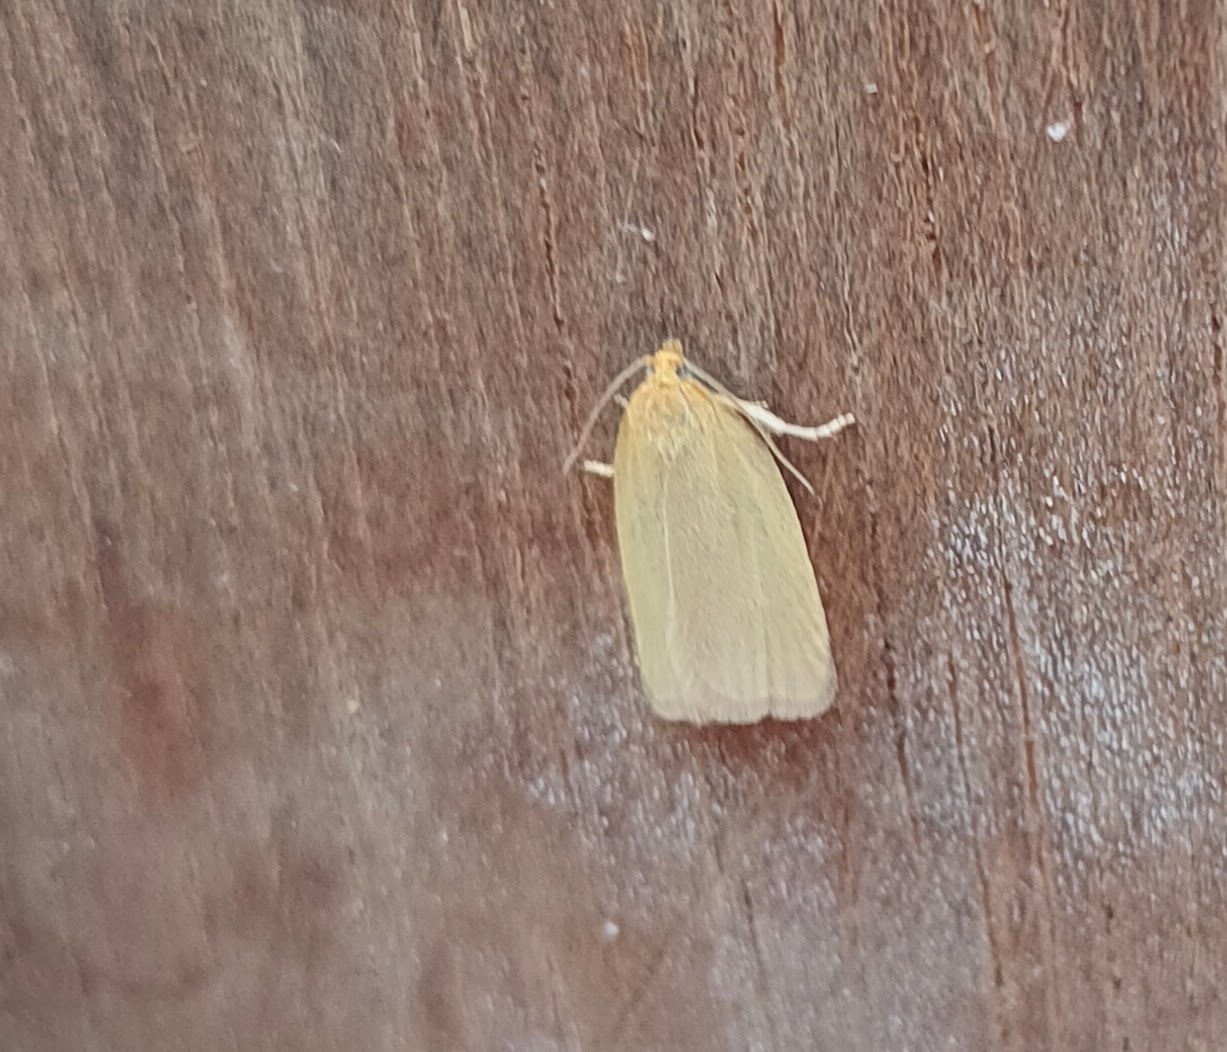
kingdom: Animalia
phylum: Arthropoda
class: Insecta
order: Lepidoptera
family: Tortricidae
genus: Aphelia
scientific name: Aphelia Zelotherses paleana
